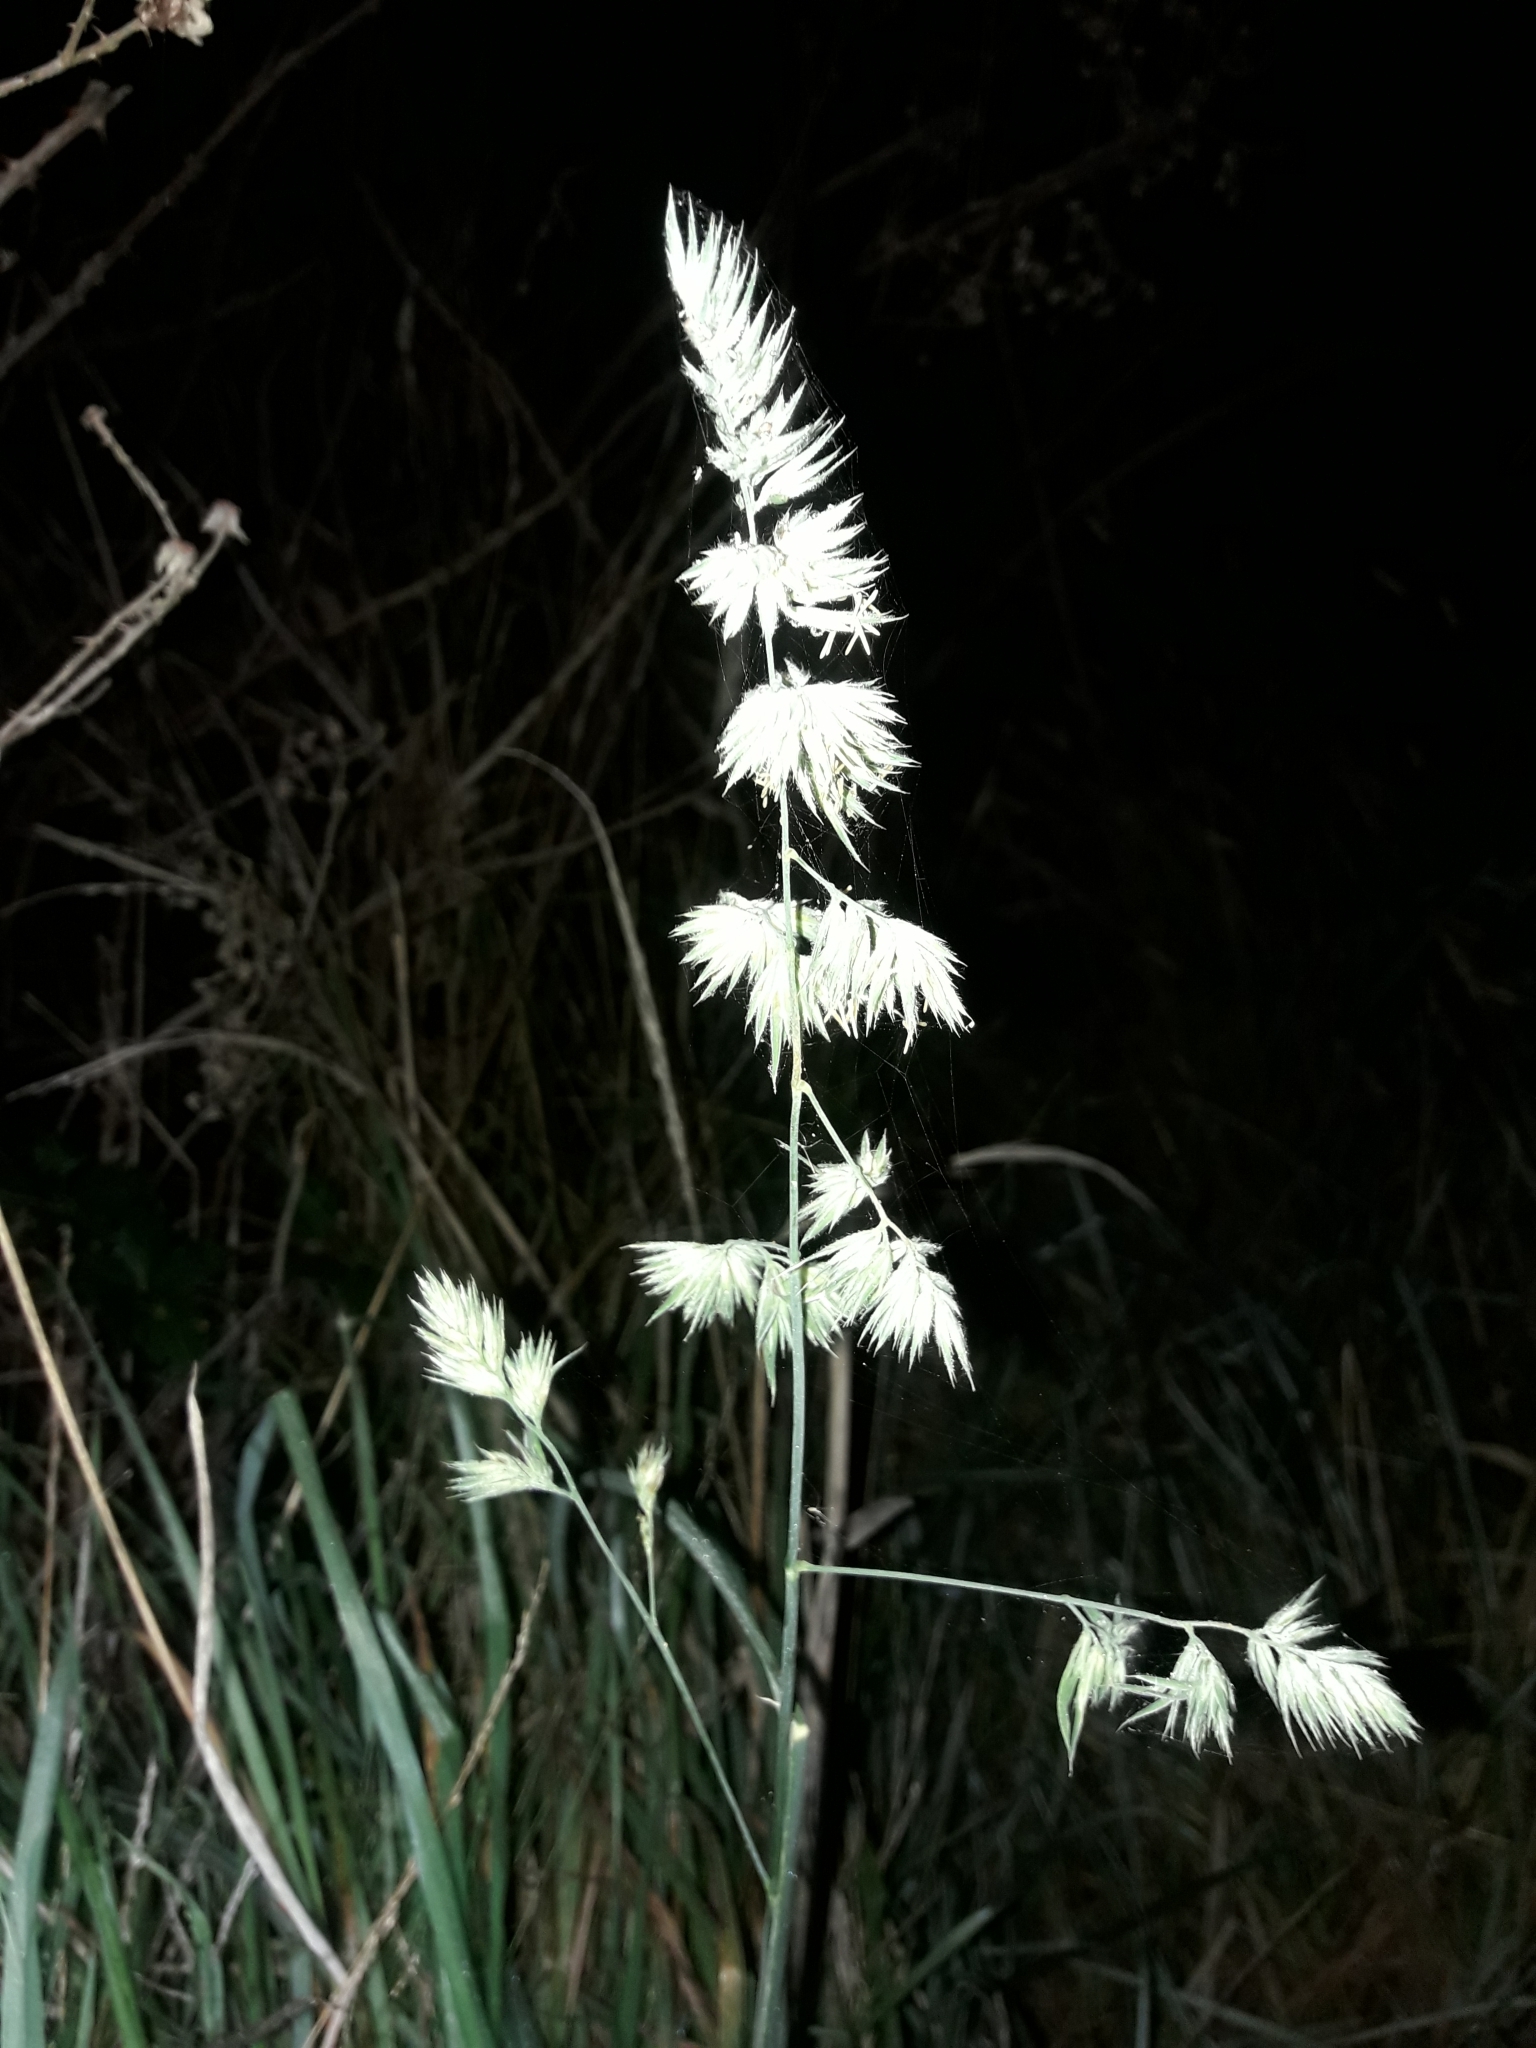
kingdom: Plantae
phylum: Tracheophyta
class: Liliopsida
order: Poales
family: Poaceae
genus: Dactylis
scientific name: Dactylis glomerata
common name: Orchardgrass
